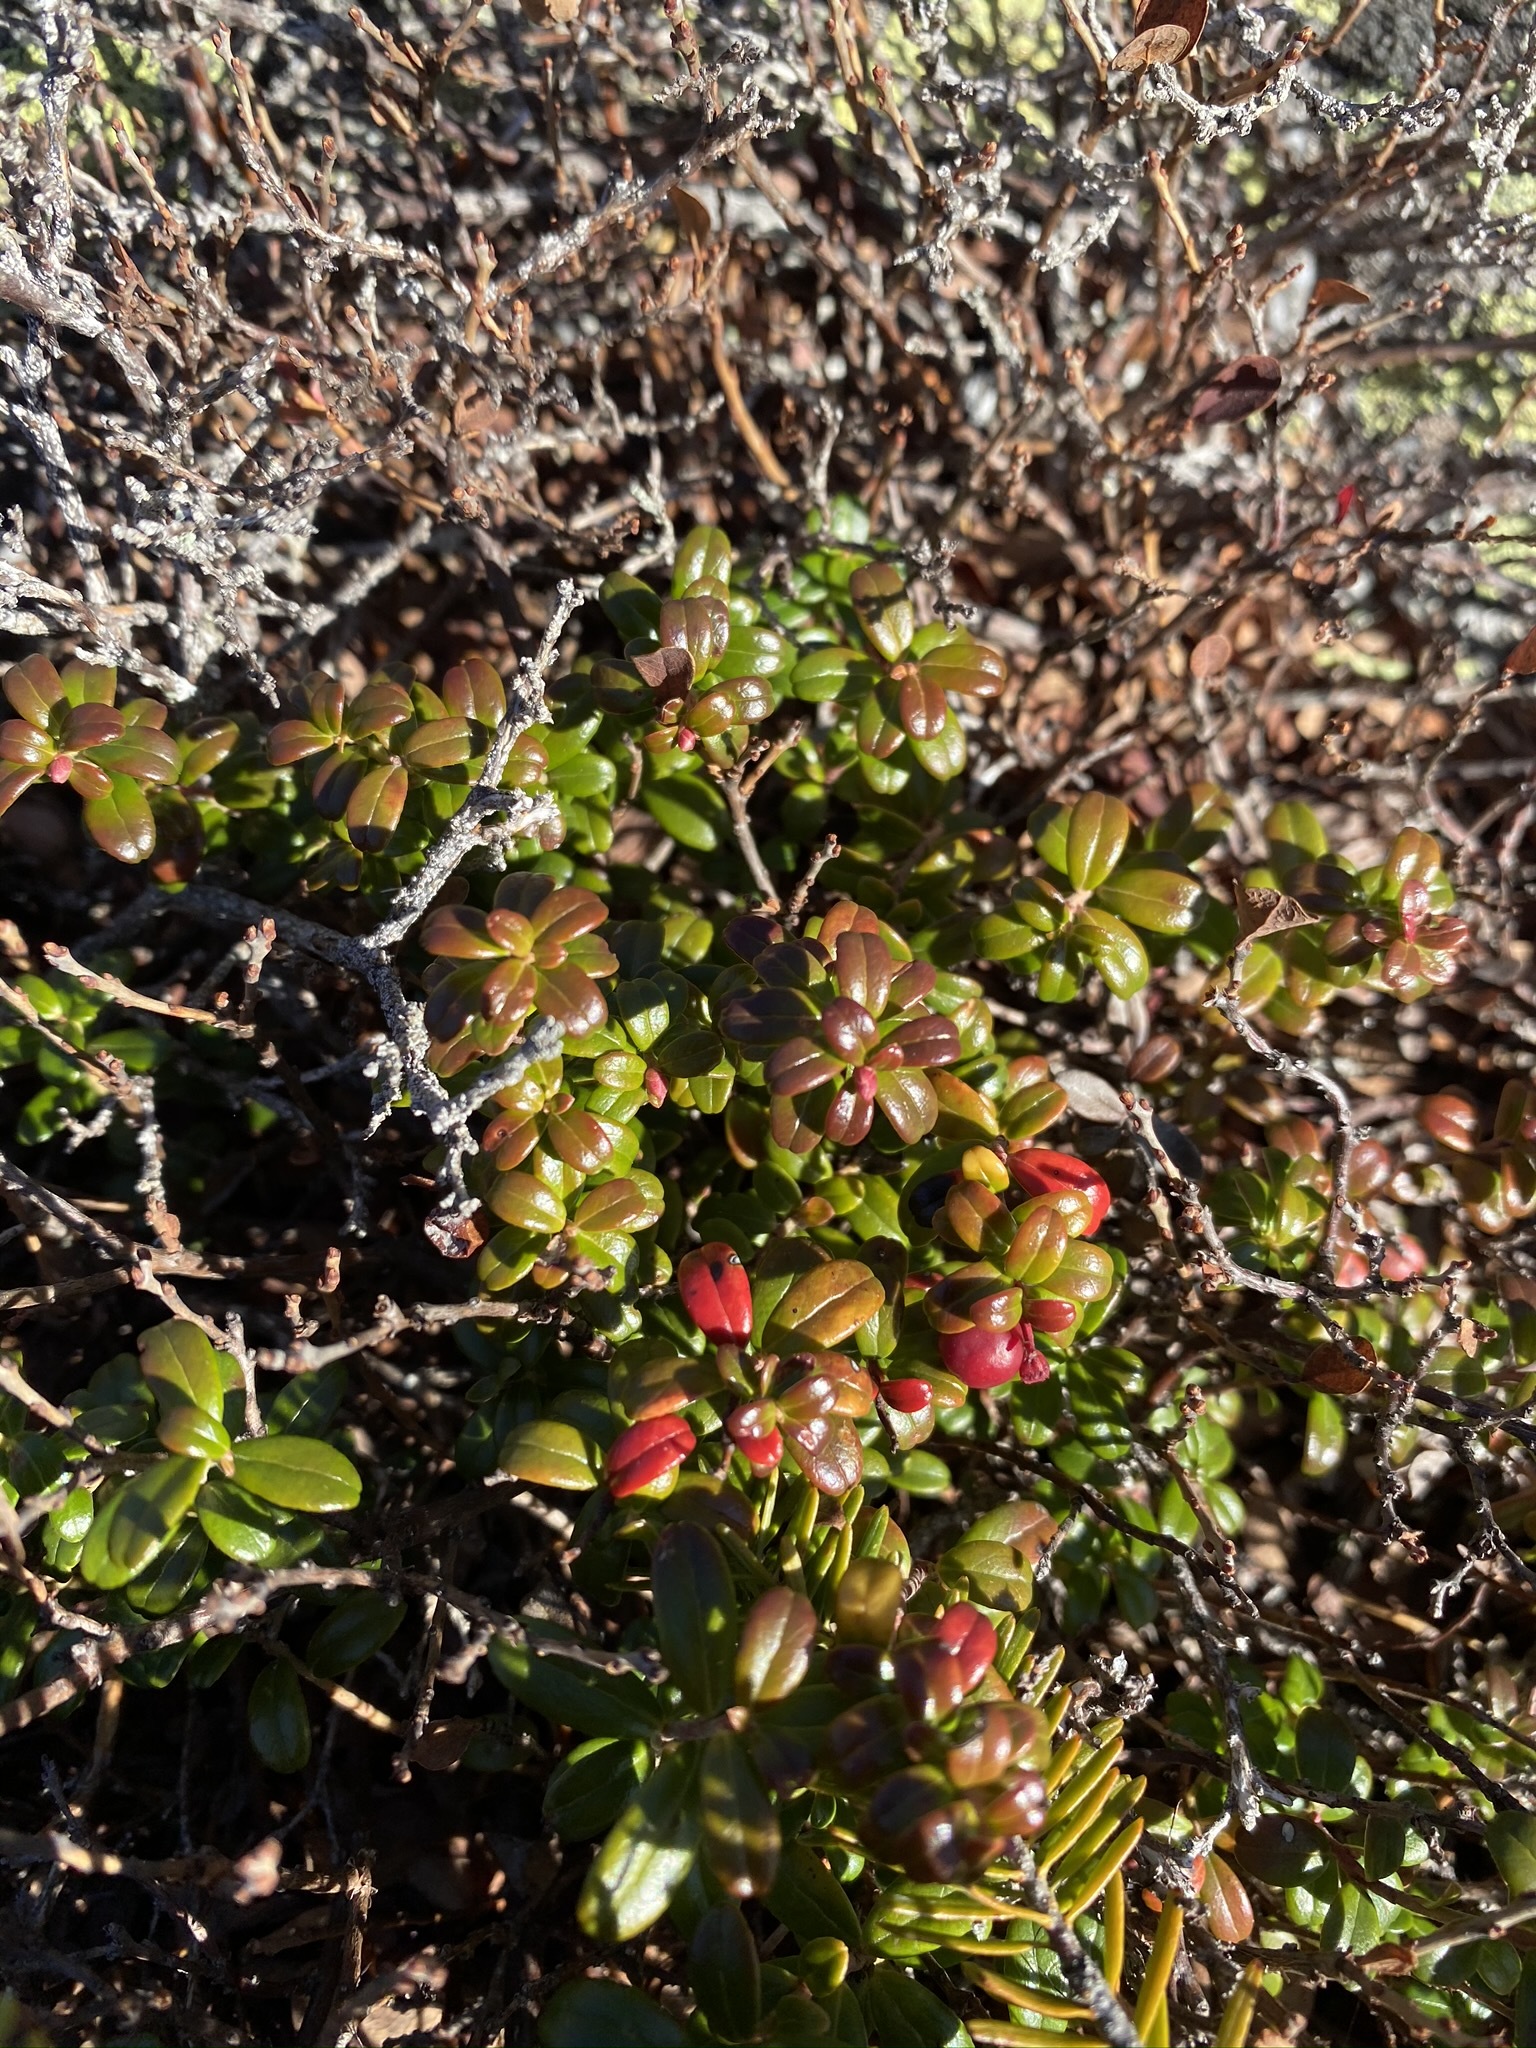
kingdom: Plantae
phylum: Tracheophyta
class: Magnoliopsida
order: Ericales
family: Ericaceae
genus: Vaccinium
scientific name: Vaccinium vitis-idaea
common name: Cowberry
